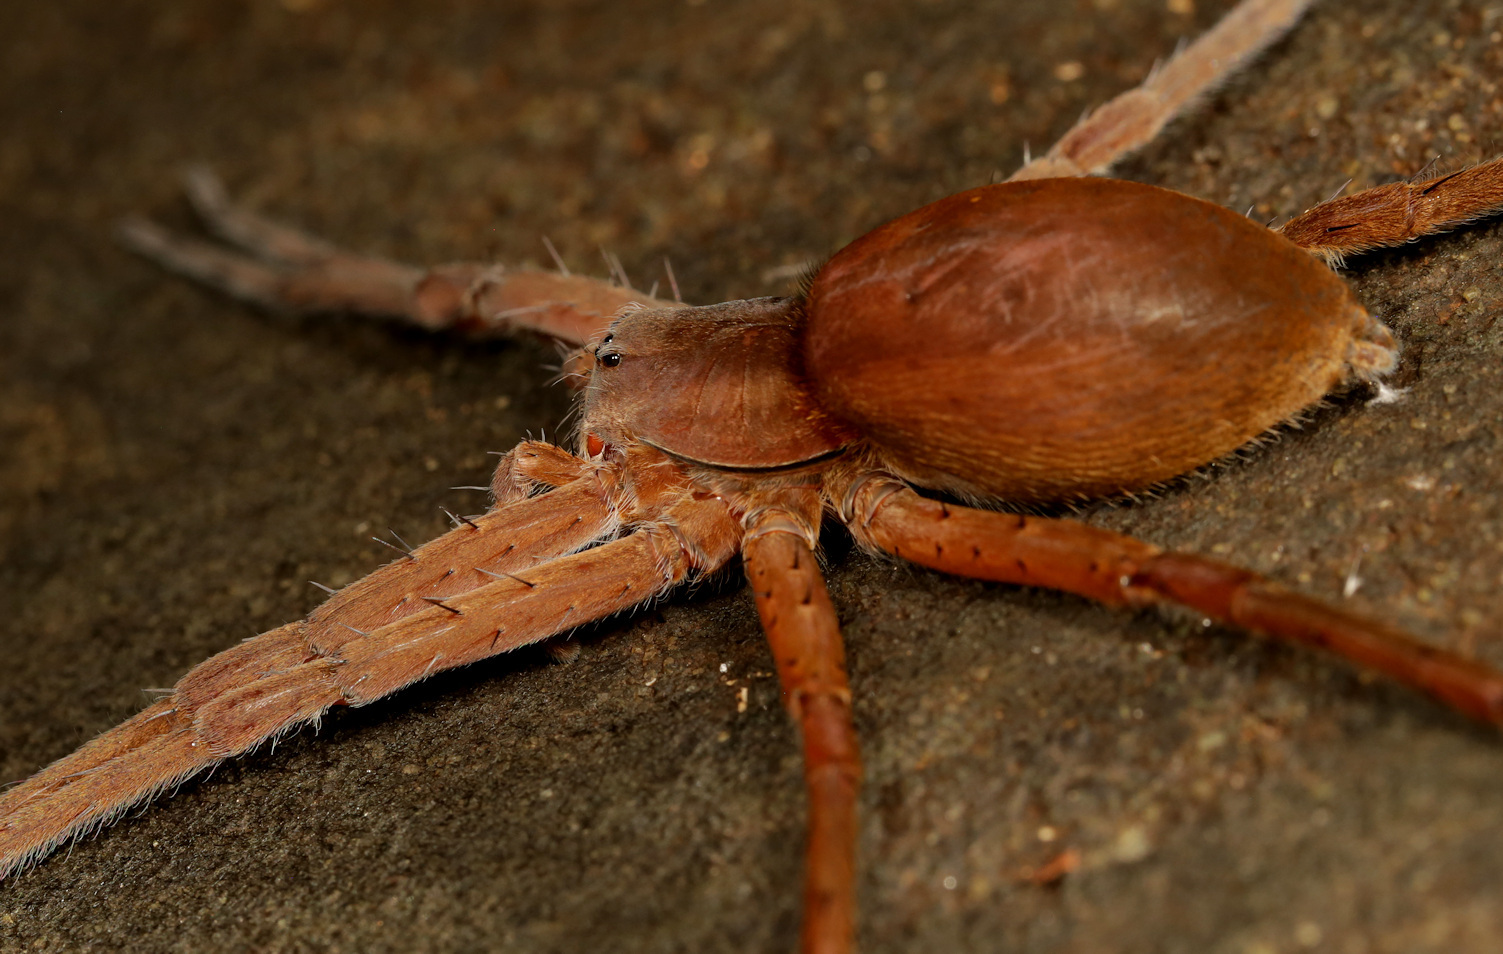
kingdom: Animalia
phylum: Arthropoda
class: Arachnida
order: Araneae
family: Pisauridae
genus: Nilus
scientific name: Nilus curtus
